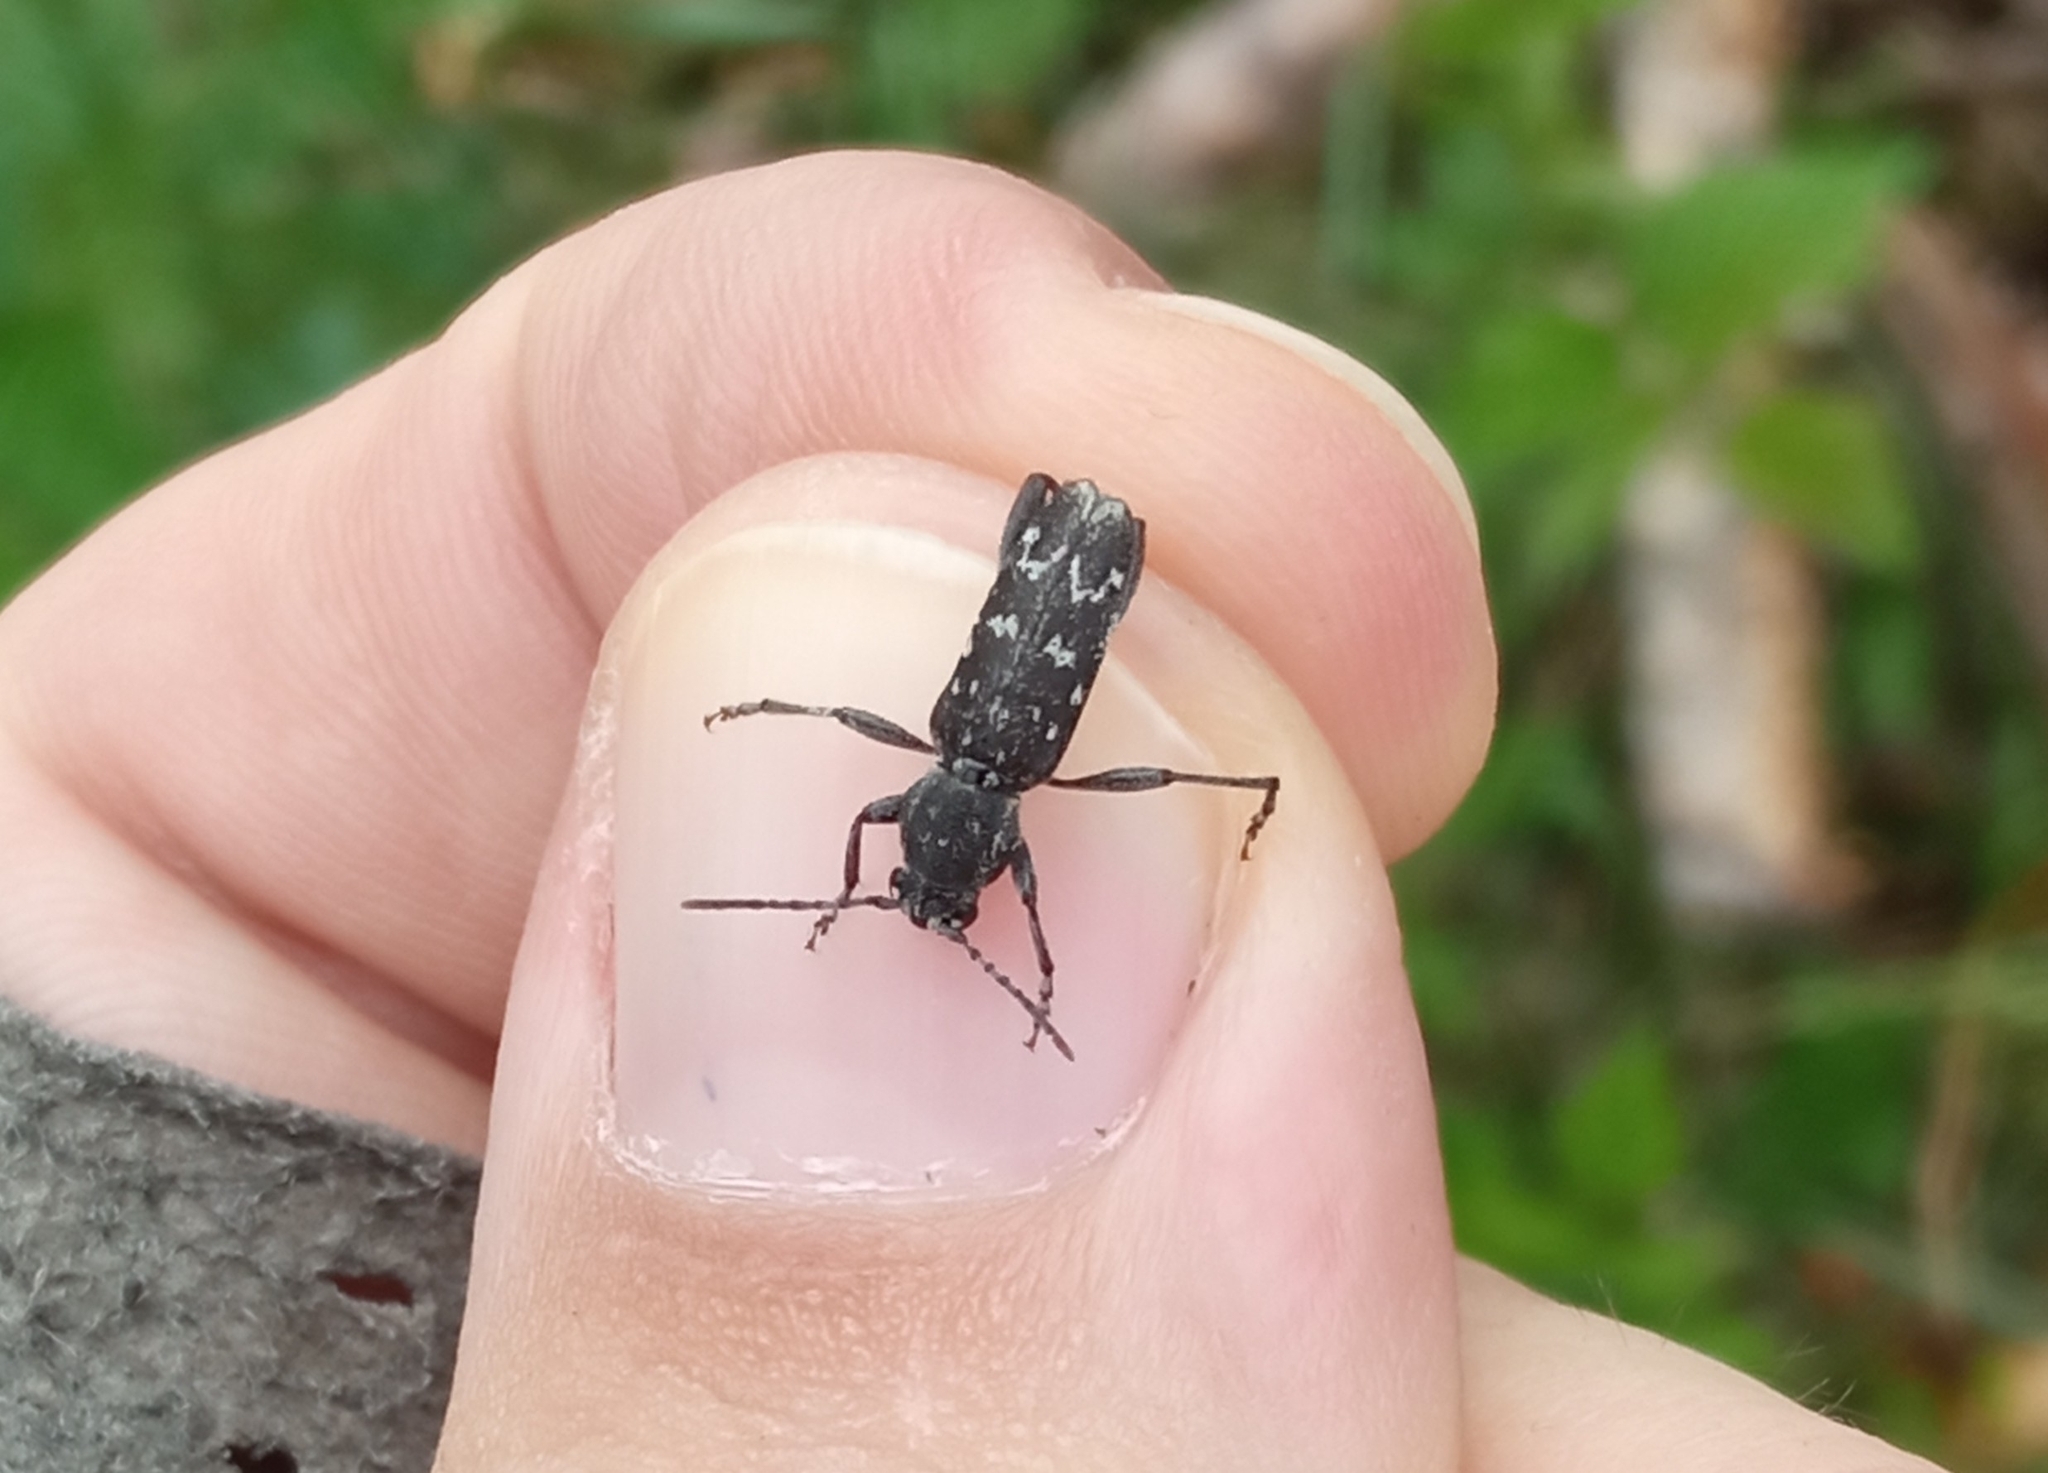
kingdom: Animalia
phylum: Arthropoda
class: Insecta
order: Coleoptera
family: Cerambycidae
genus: Xylotrechus
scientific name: Xylotrechus rusticus
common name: Grey tiger long-horned beetle
